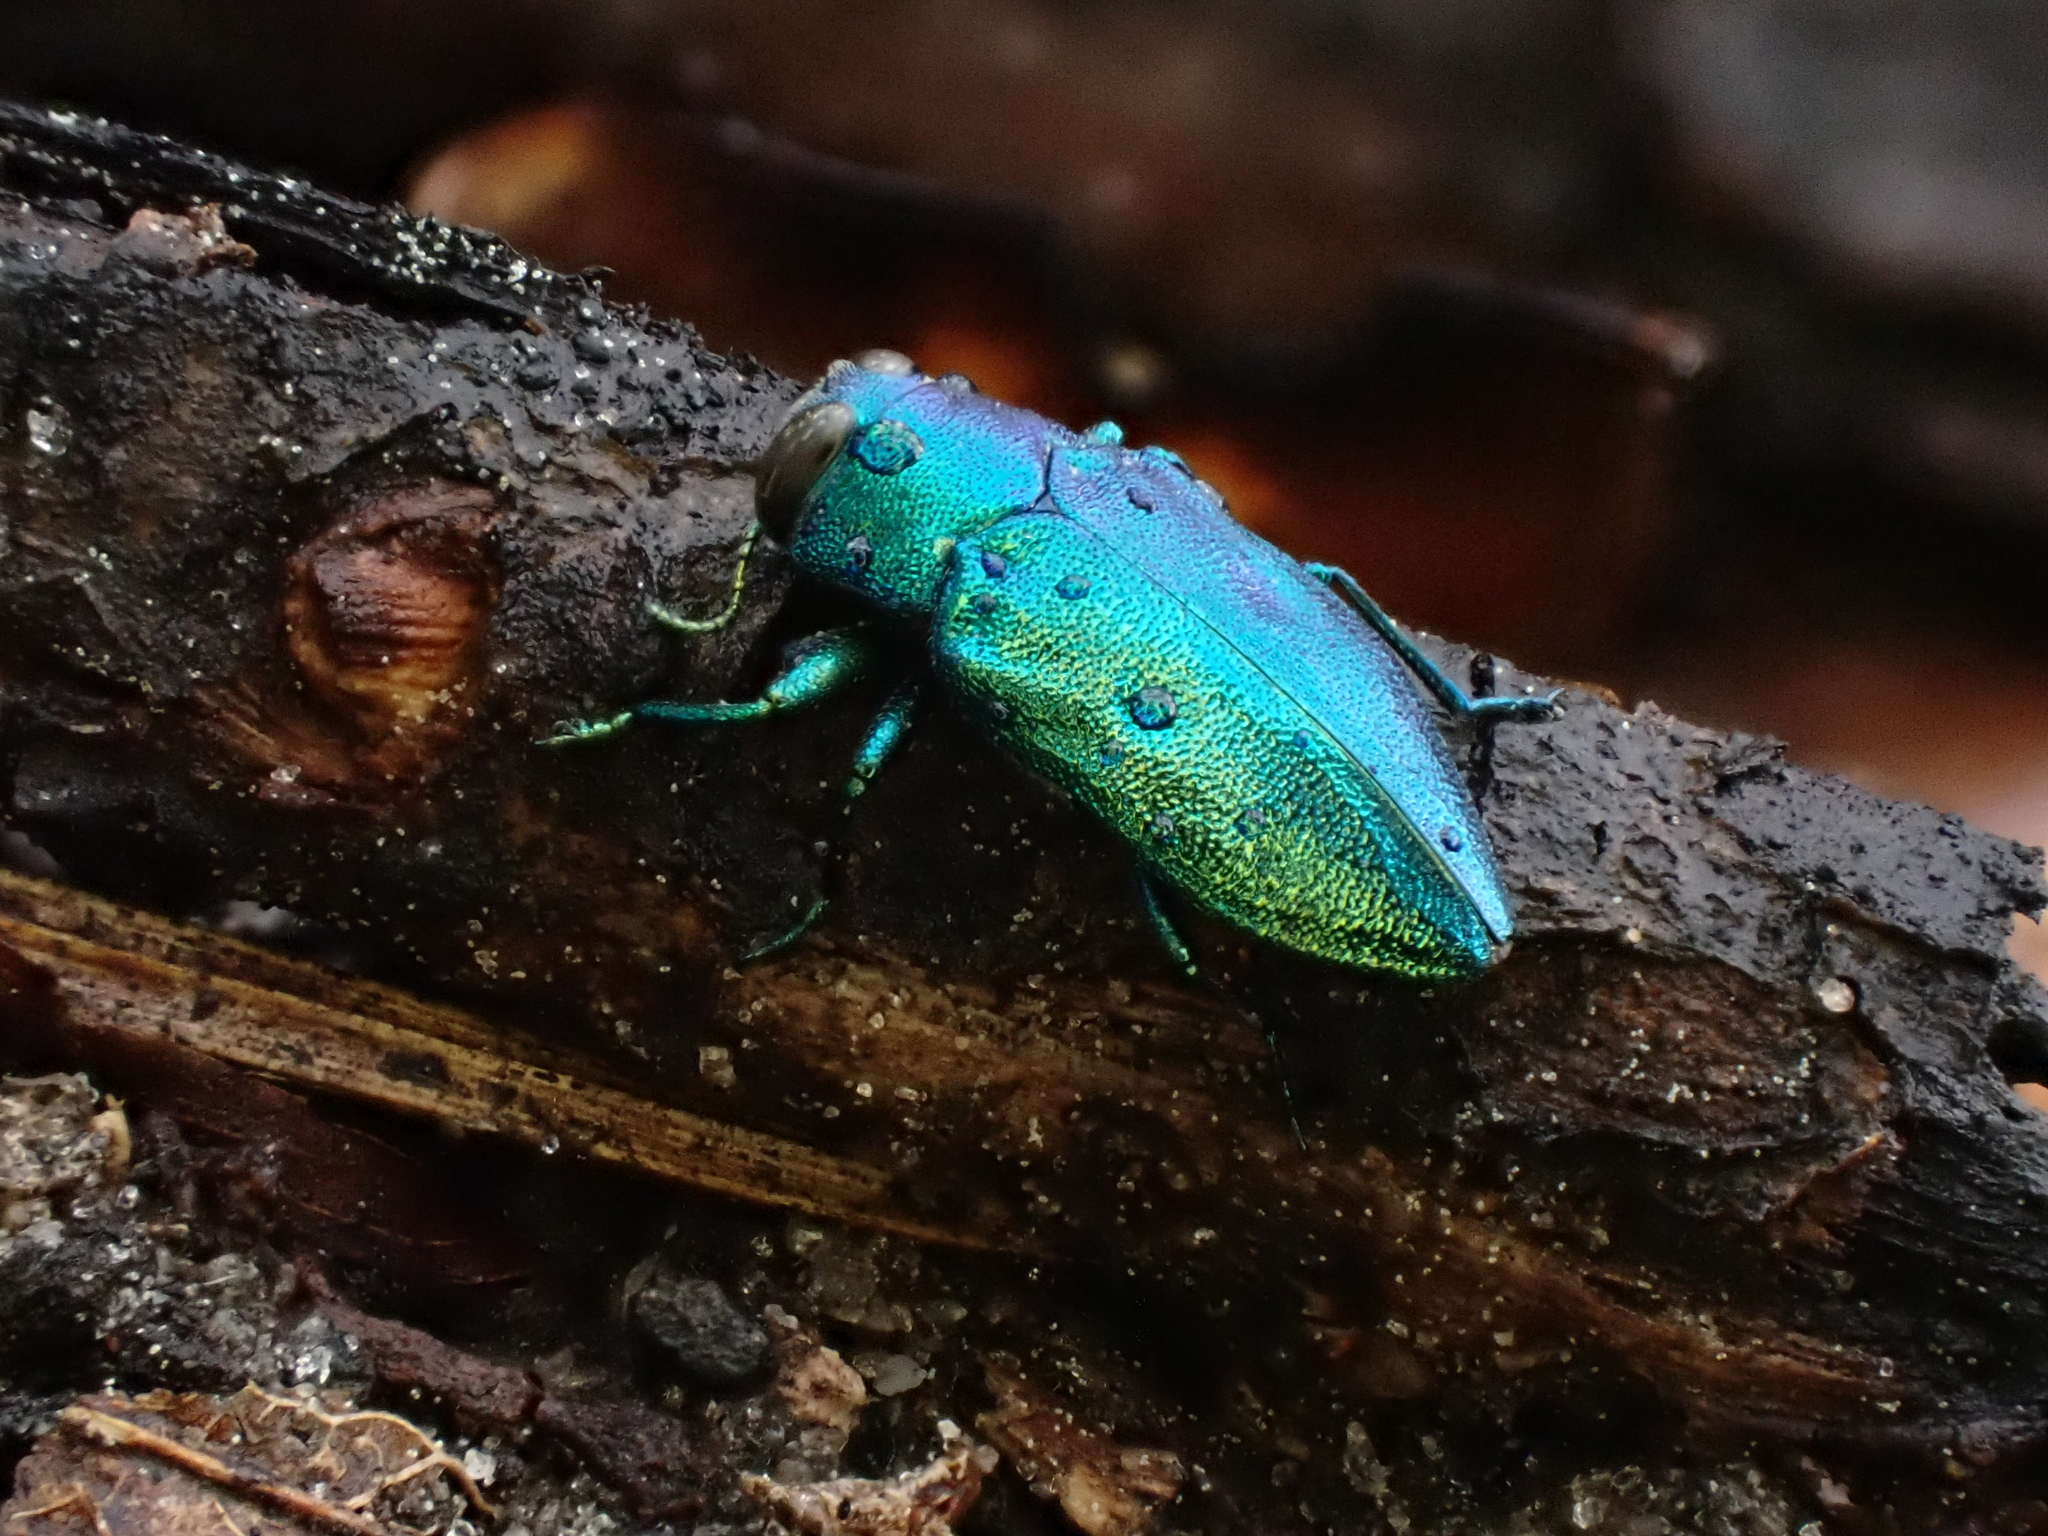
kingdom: Animalia
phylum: Arthropoda
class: Insecta
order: Coleoptera
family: Buprestidae
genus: Chrysobothris
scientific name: Chrysobothris harrisii
